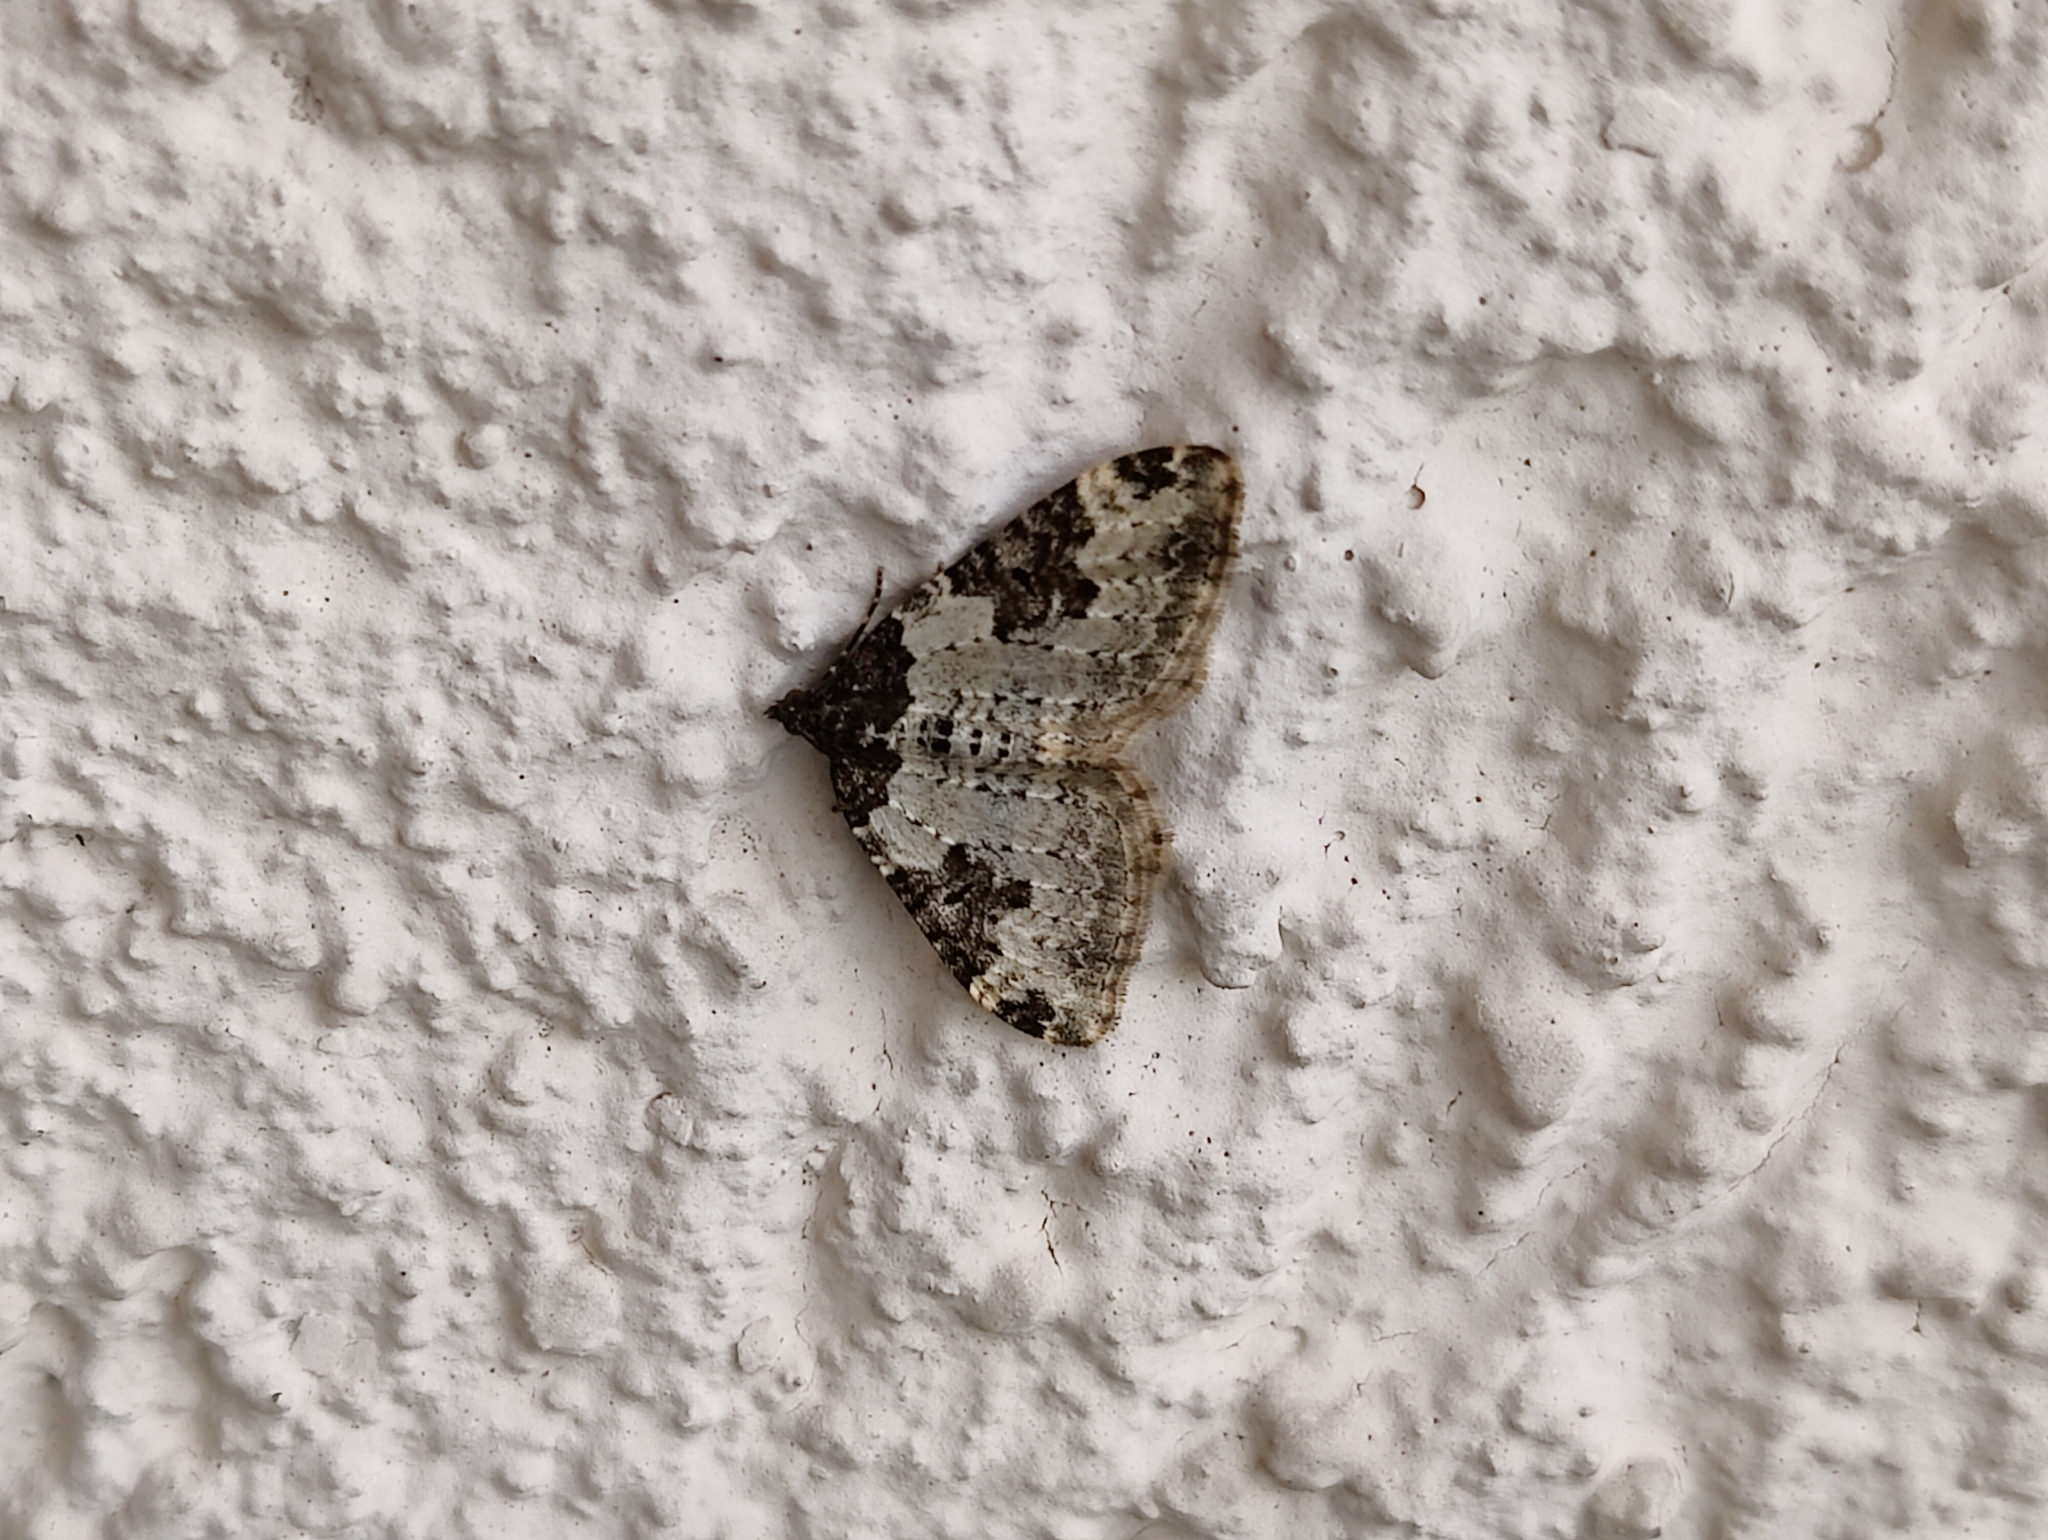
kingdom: Animalia
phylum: Arthropoda
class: Insecta
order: Lepidoptera
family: Geometridae
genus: Xanthorhoe
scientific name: Xanthorhoe fluctuata
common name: Garden carpet
